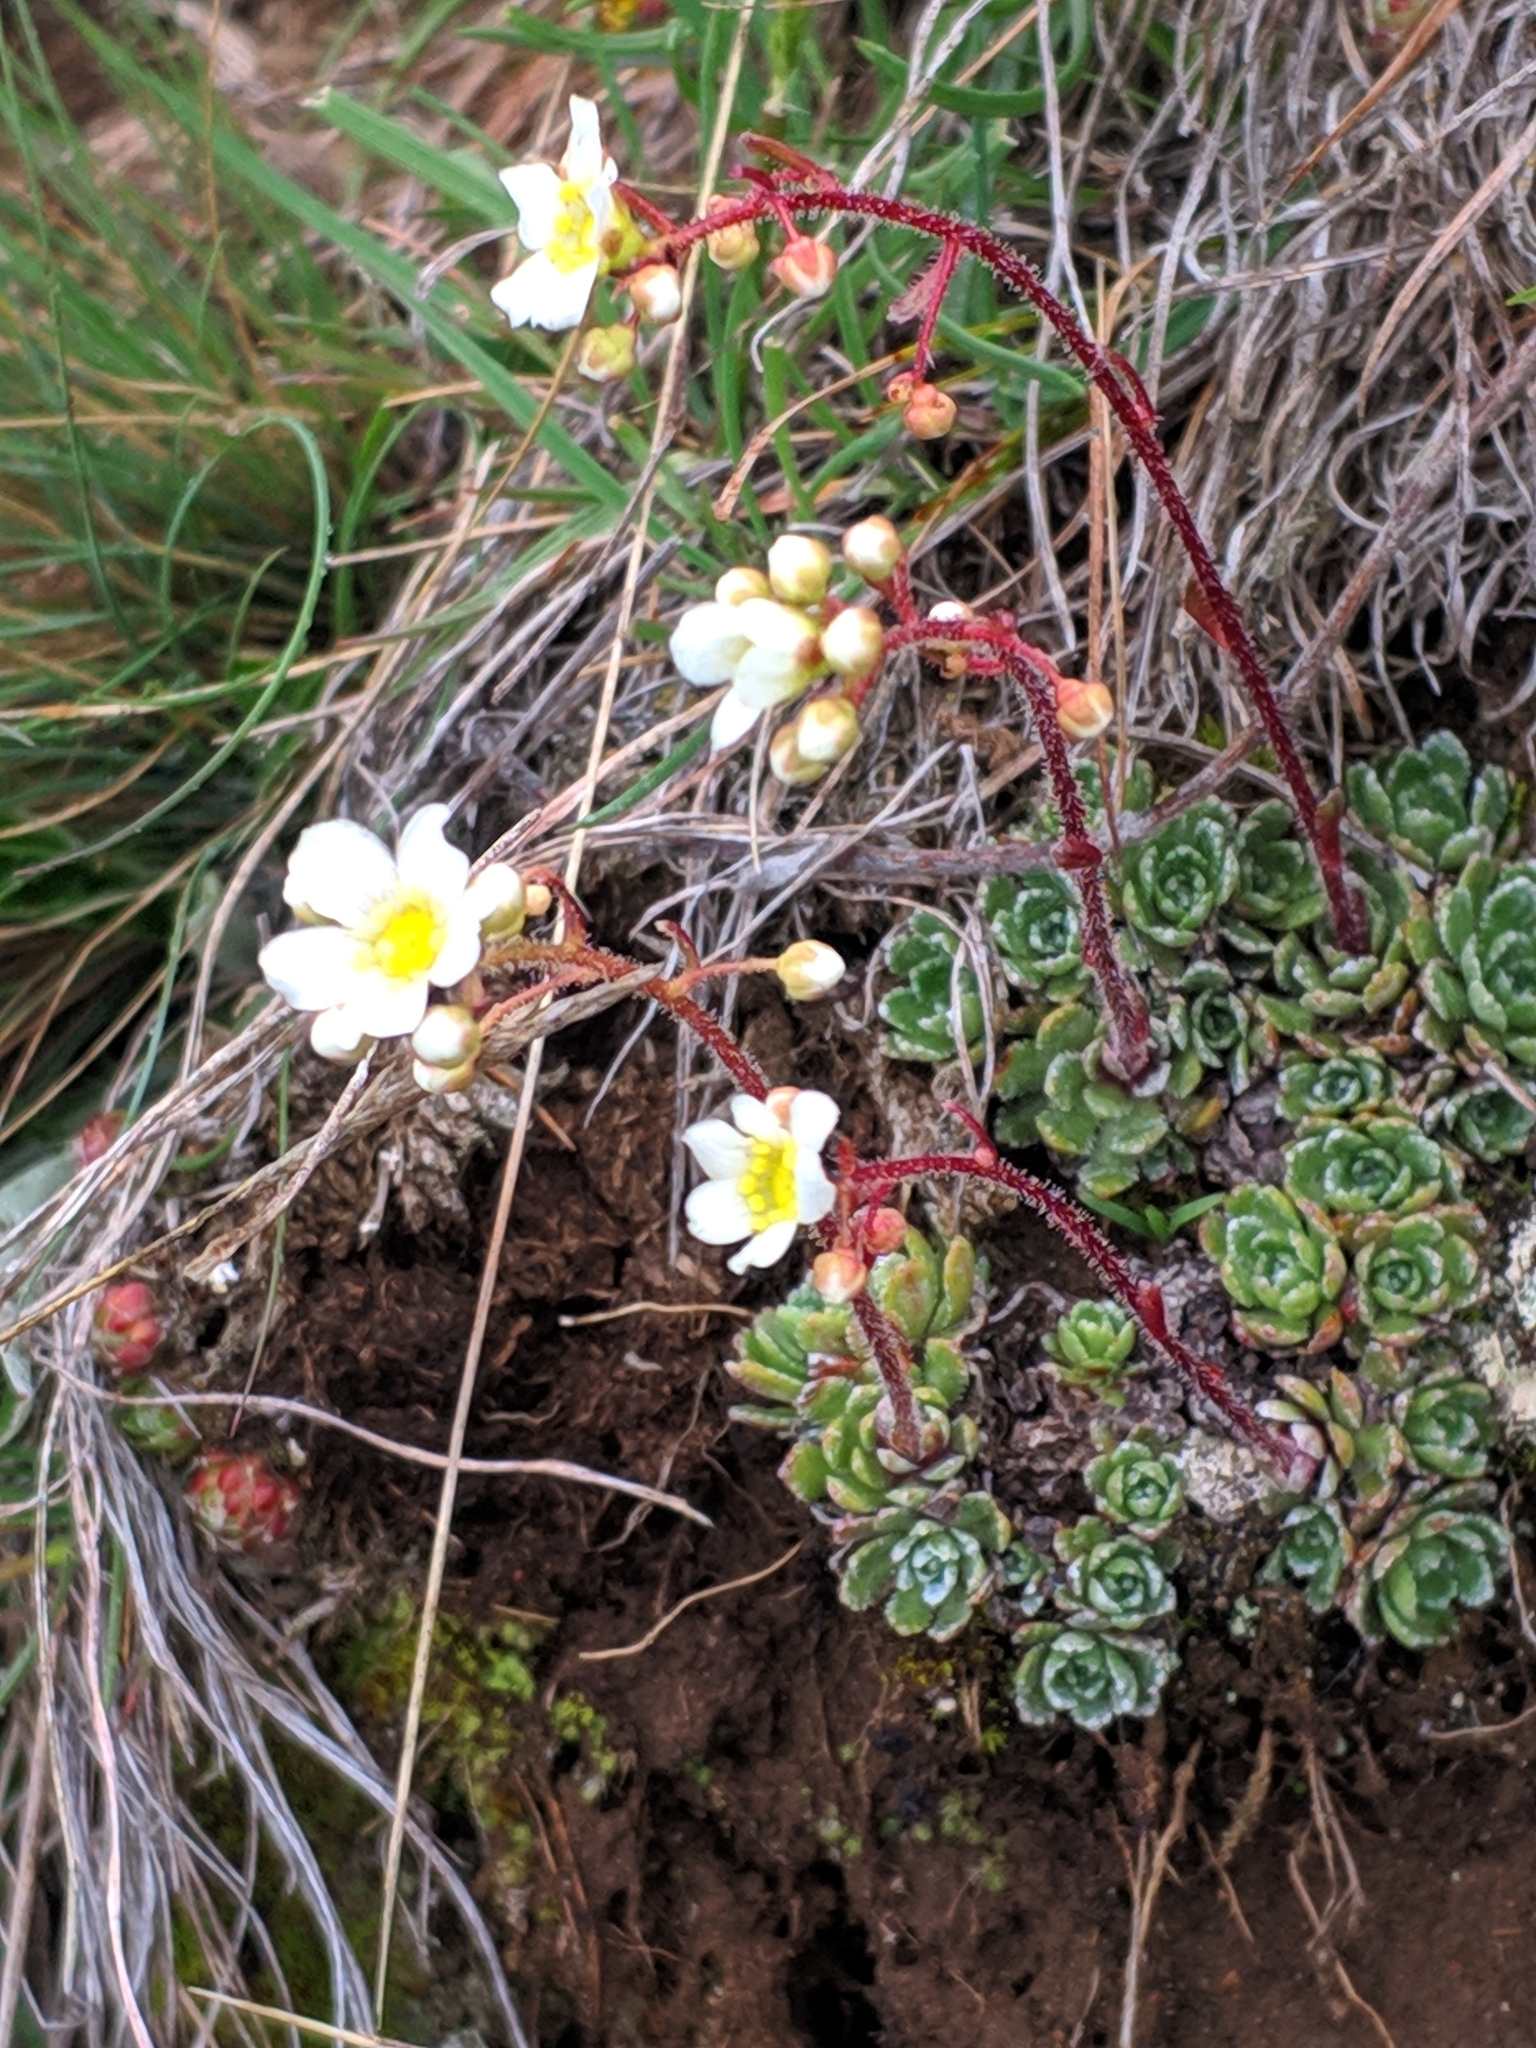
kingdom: Plantae
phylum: Tracheophyta
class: Magnoliopsida
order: Saxifragales
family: Saxifragaceae
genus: Saxifraga
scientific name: Saxifraga paniculata
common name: Livelong saxifrage
